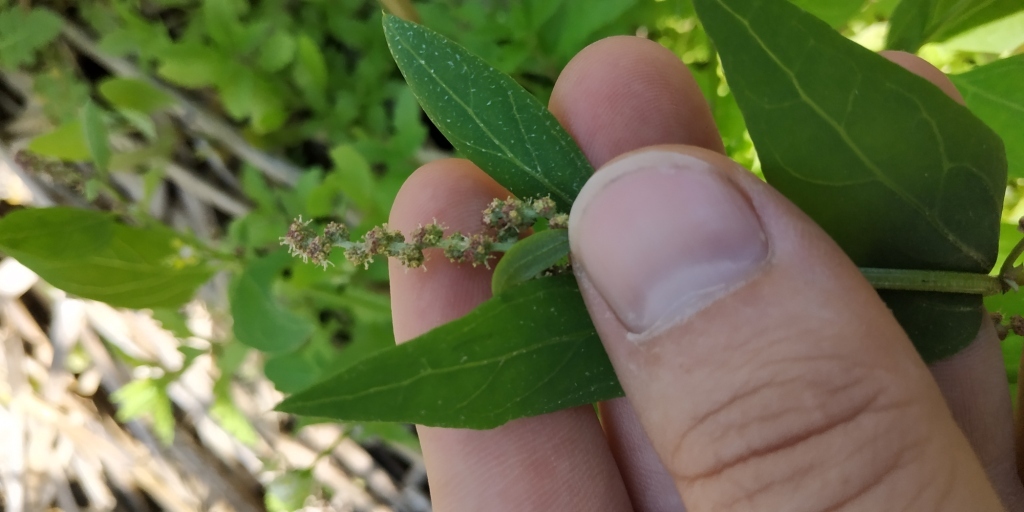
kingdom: Plantae
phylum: Tracheophyta
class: Magnoliopsida
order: Caryophyllales
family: Amaranthaceae
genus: Lipandra
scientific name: Lipandra polysperma
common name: Many-seed goosefoot
